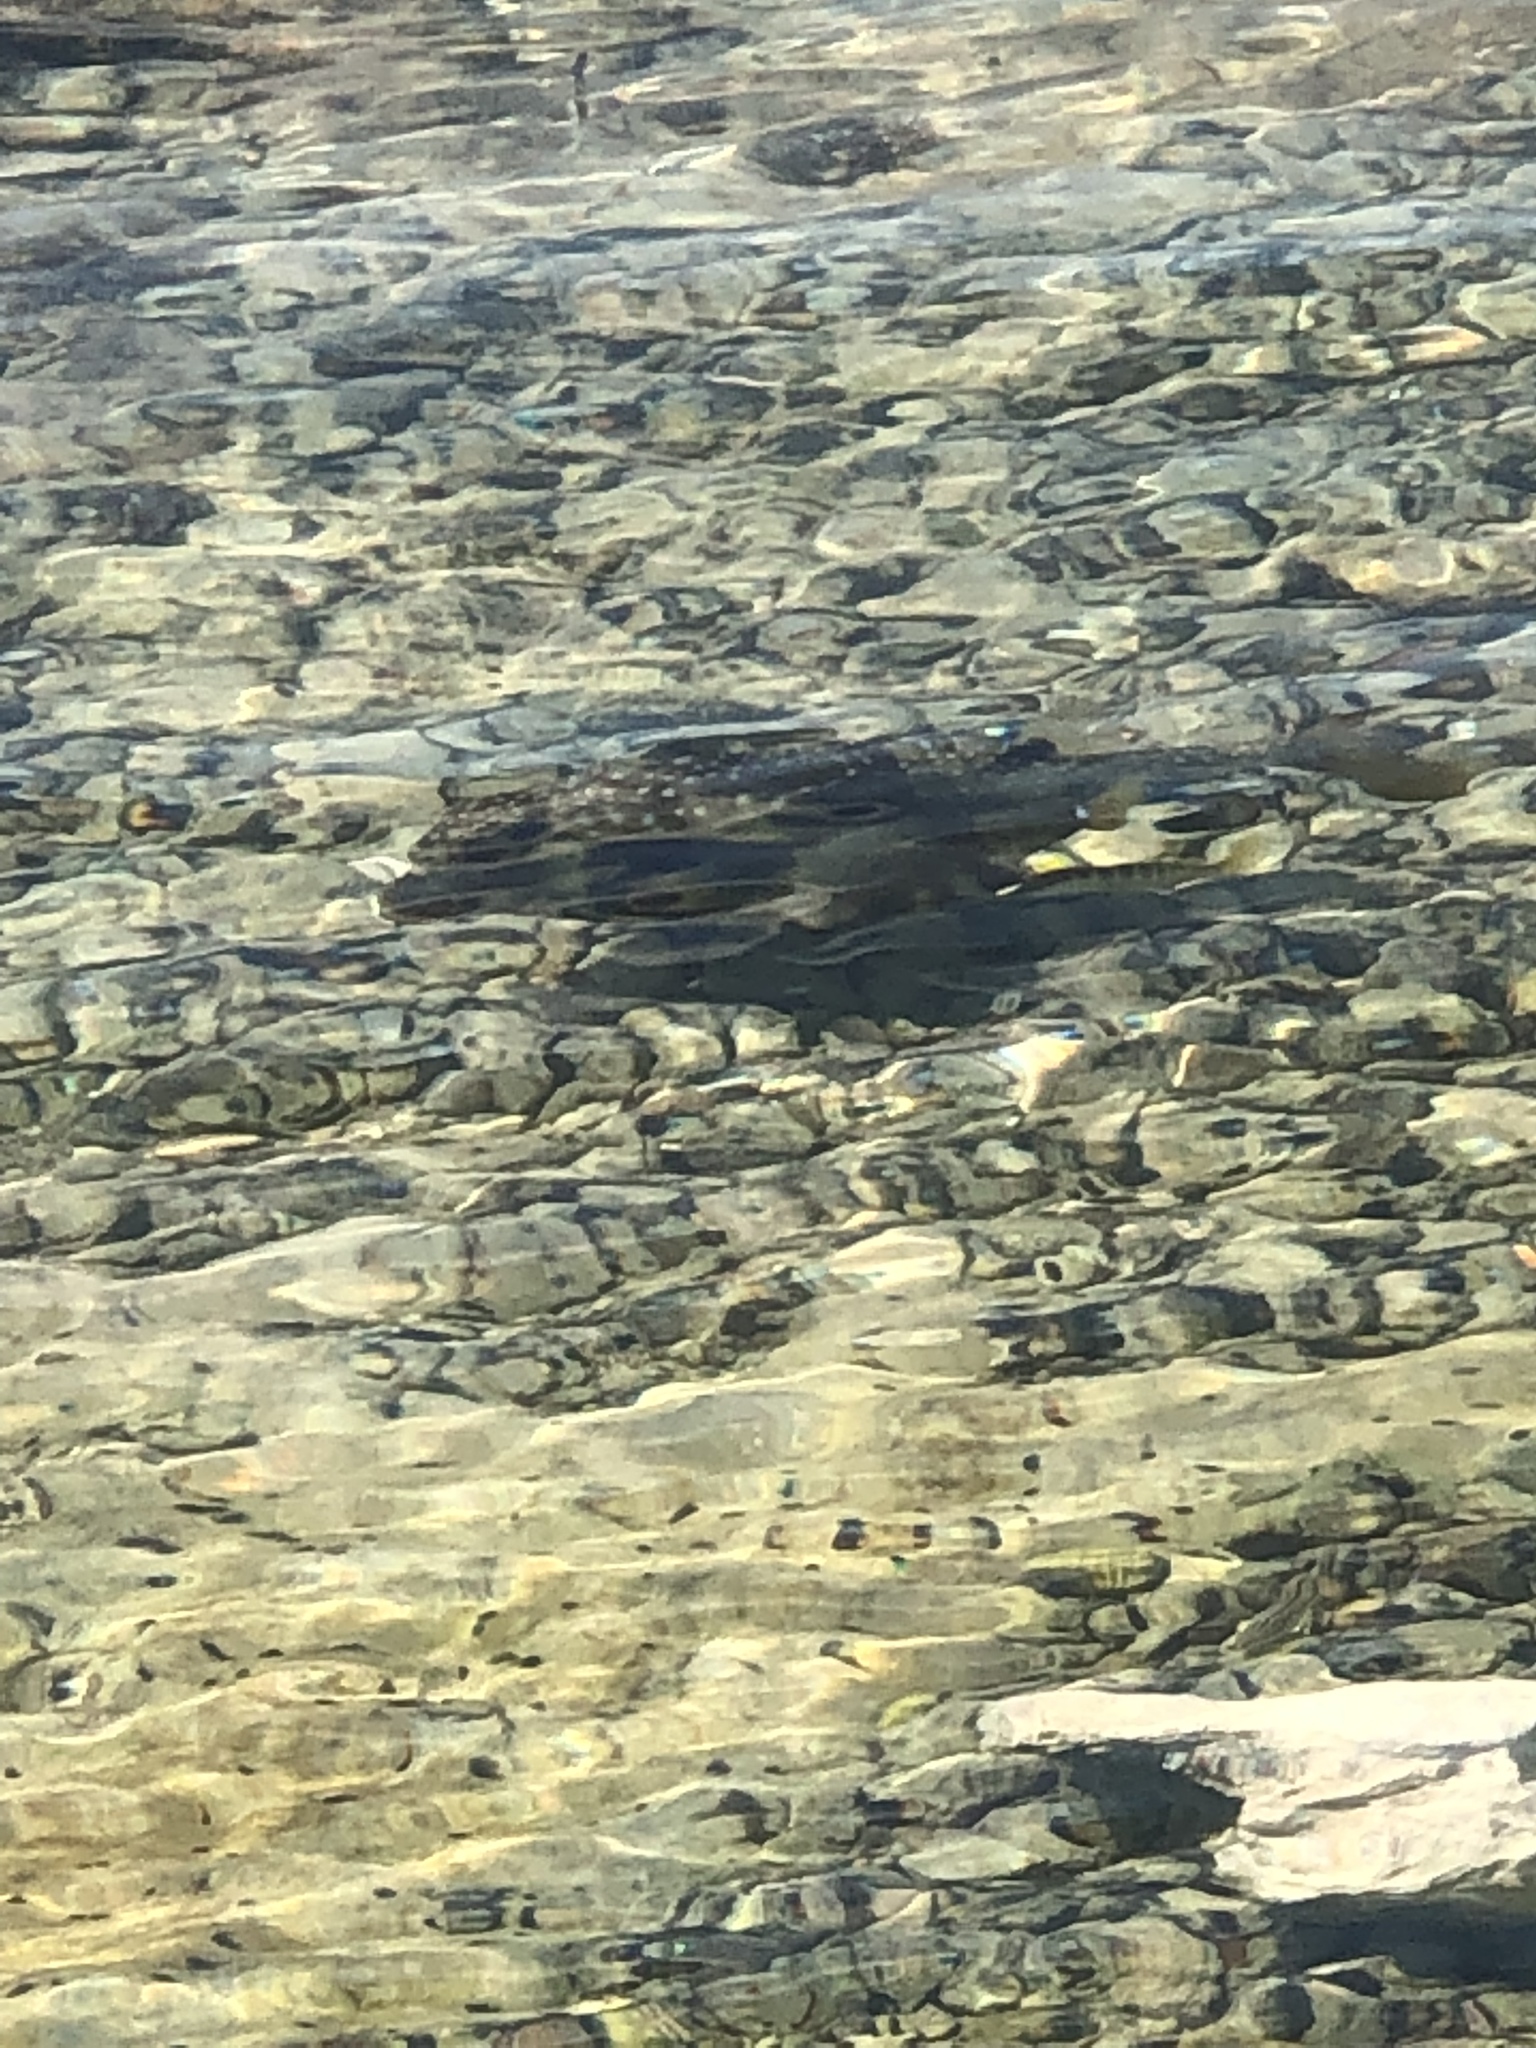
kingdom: Animalia
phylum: Chordata
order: Tetraodontiformes
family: Ostraciidae
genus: Lactophrys
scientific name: Lactophrys trigonus
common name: Buffalo trunkfish
